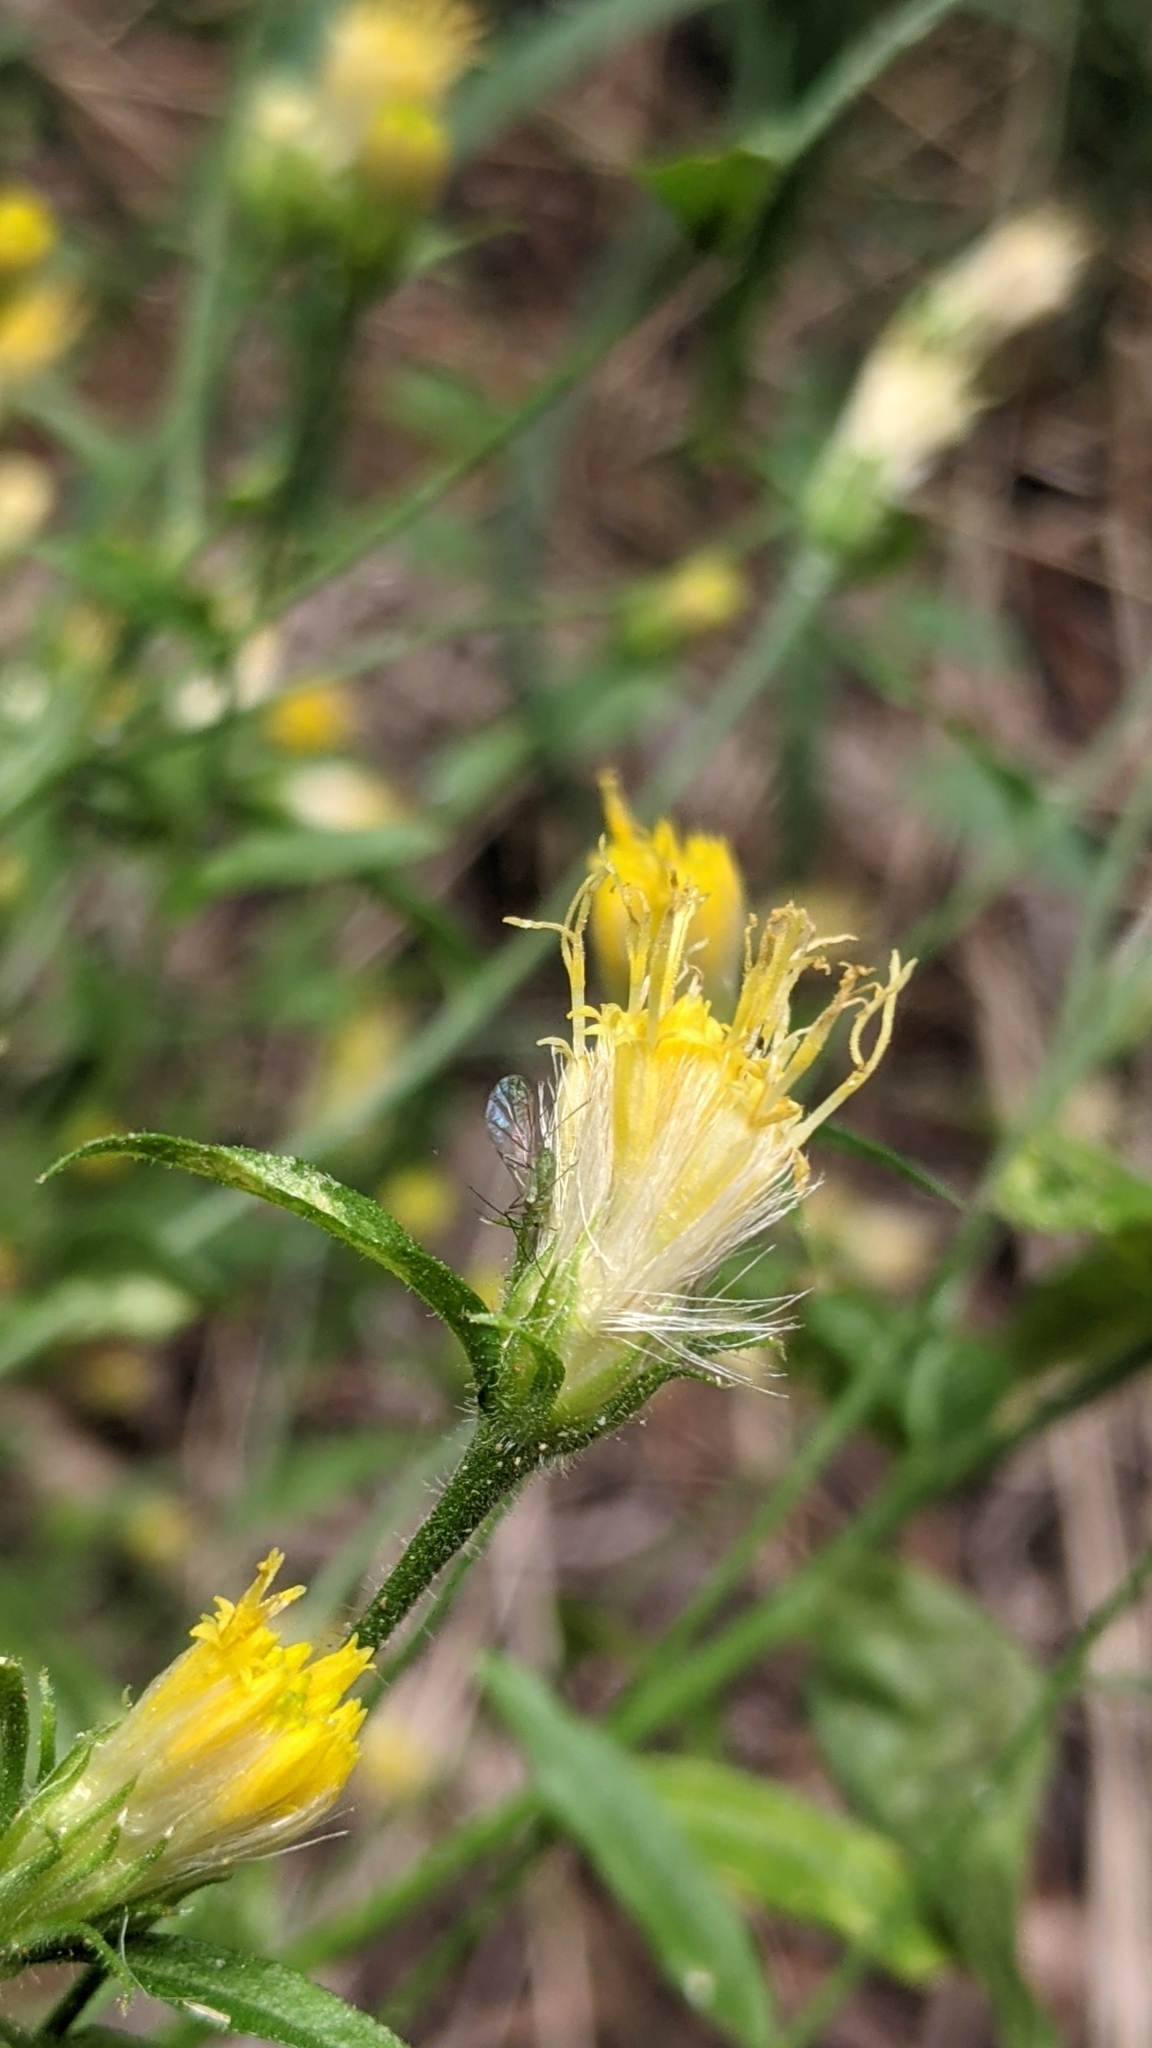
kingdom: Plantae
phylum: Tracheophyta
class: Magnoliopsida
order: Asterales
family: Asteraceae
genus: Eucephalus
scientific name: Eucephalus breweri
